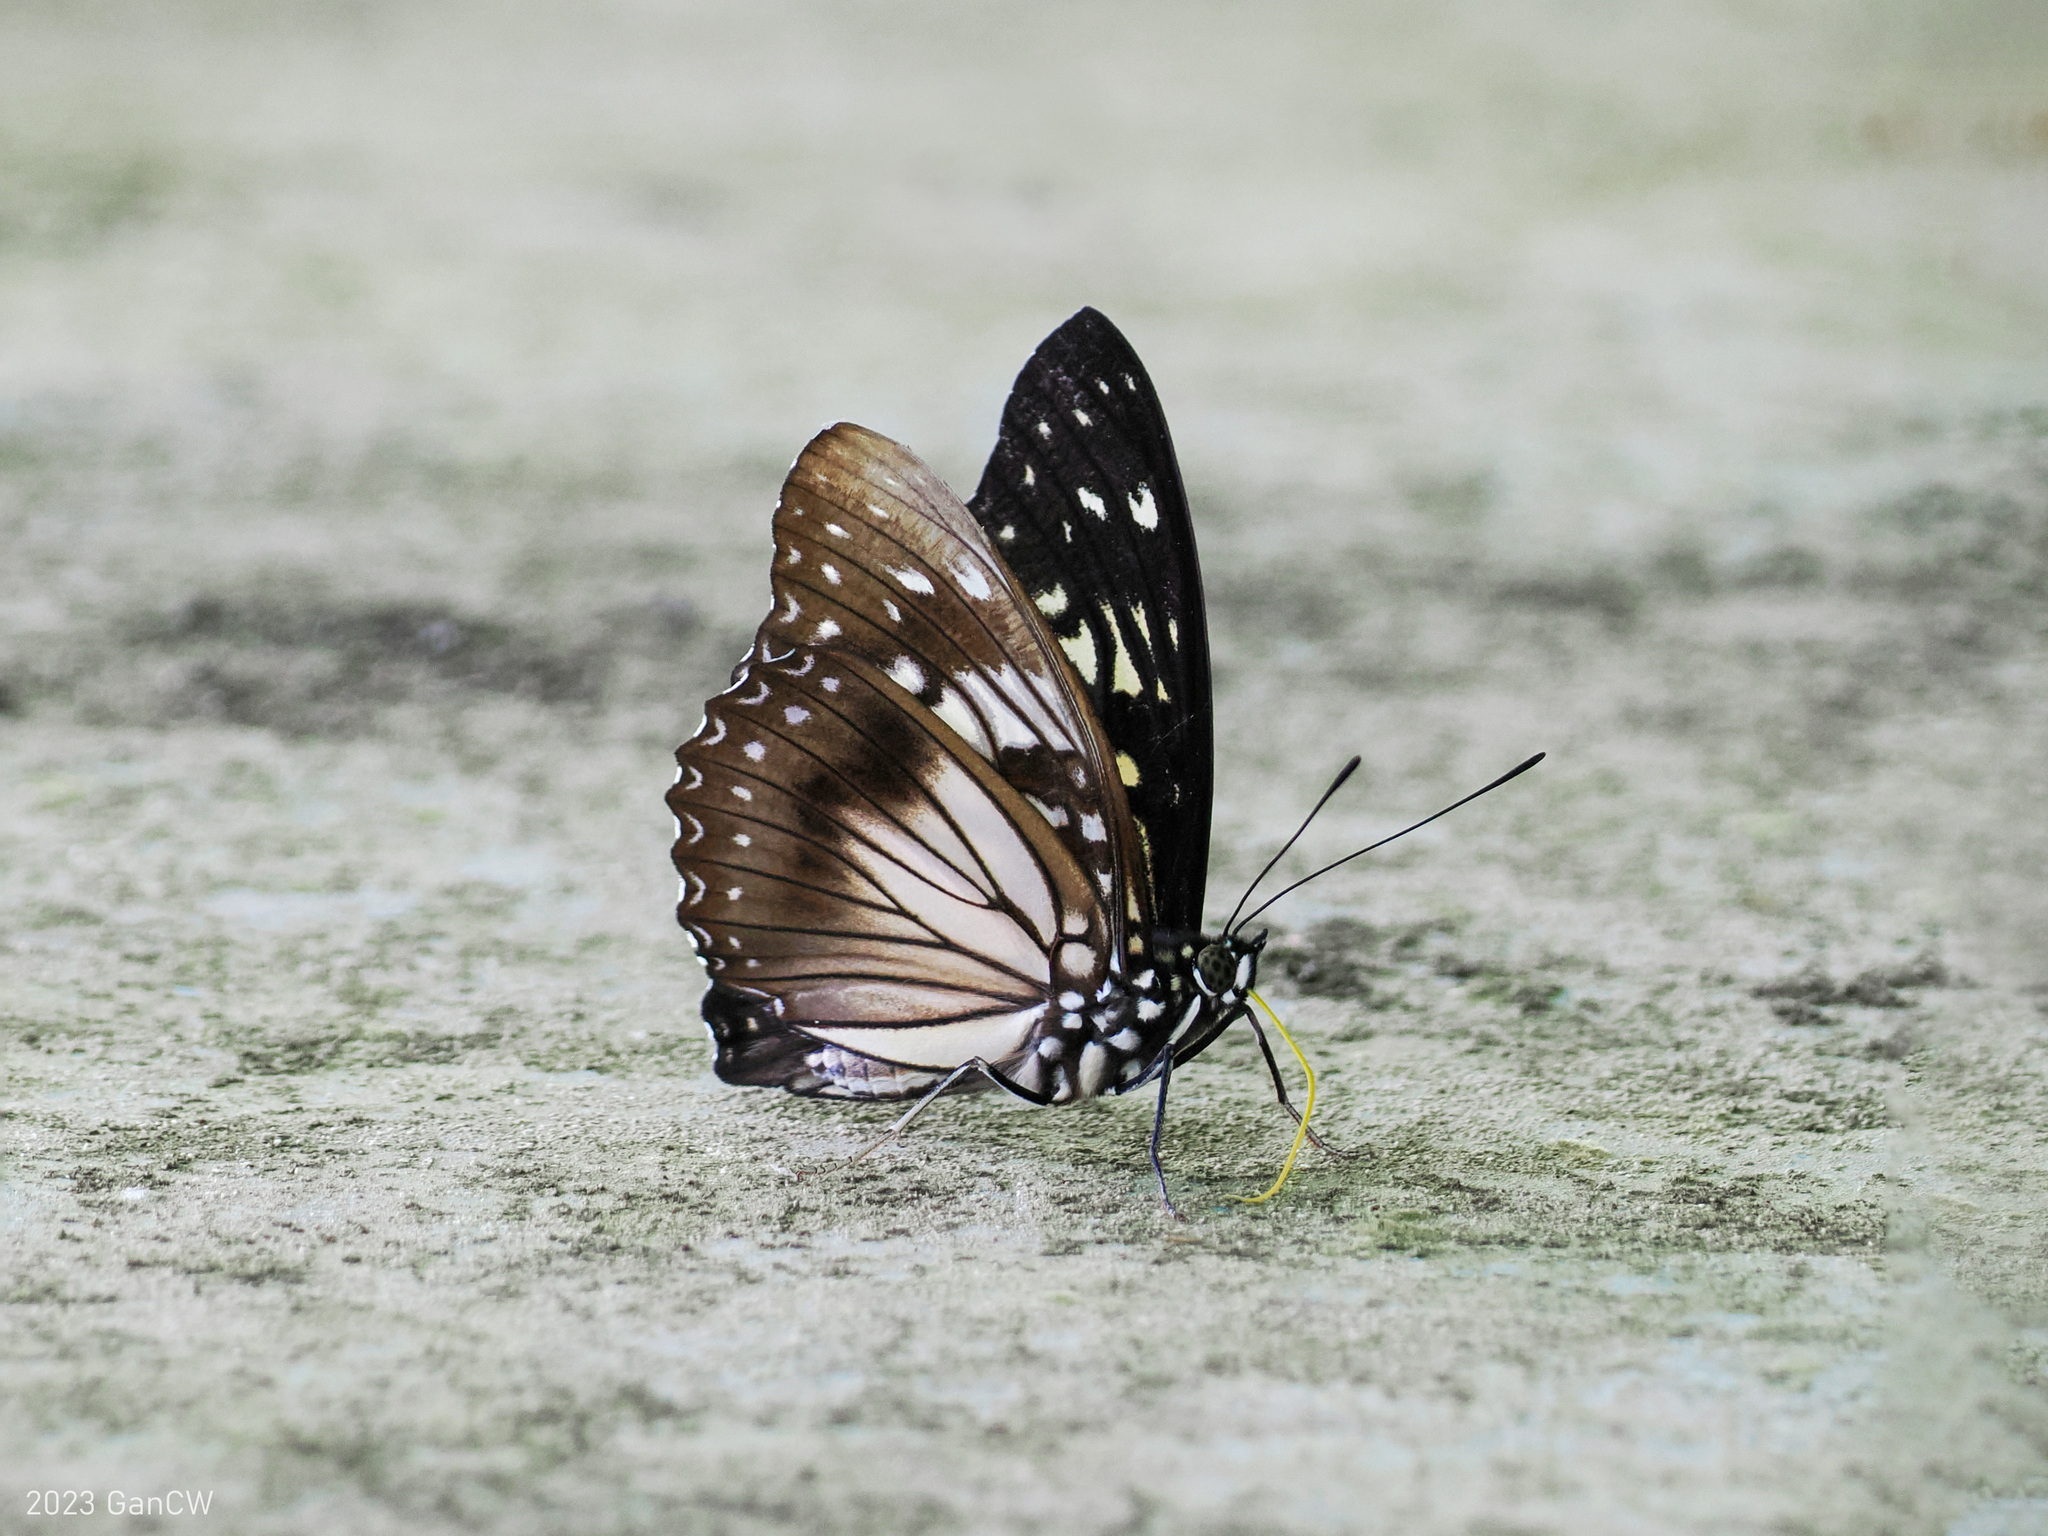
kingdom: Animalia
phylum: Arthropoda
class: Insecta
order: Lepidoptera
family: Nymphalidae
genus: Hestinalis
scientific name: Hestinalis divona
